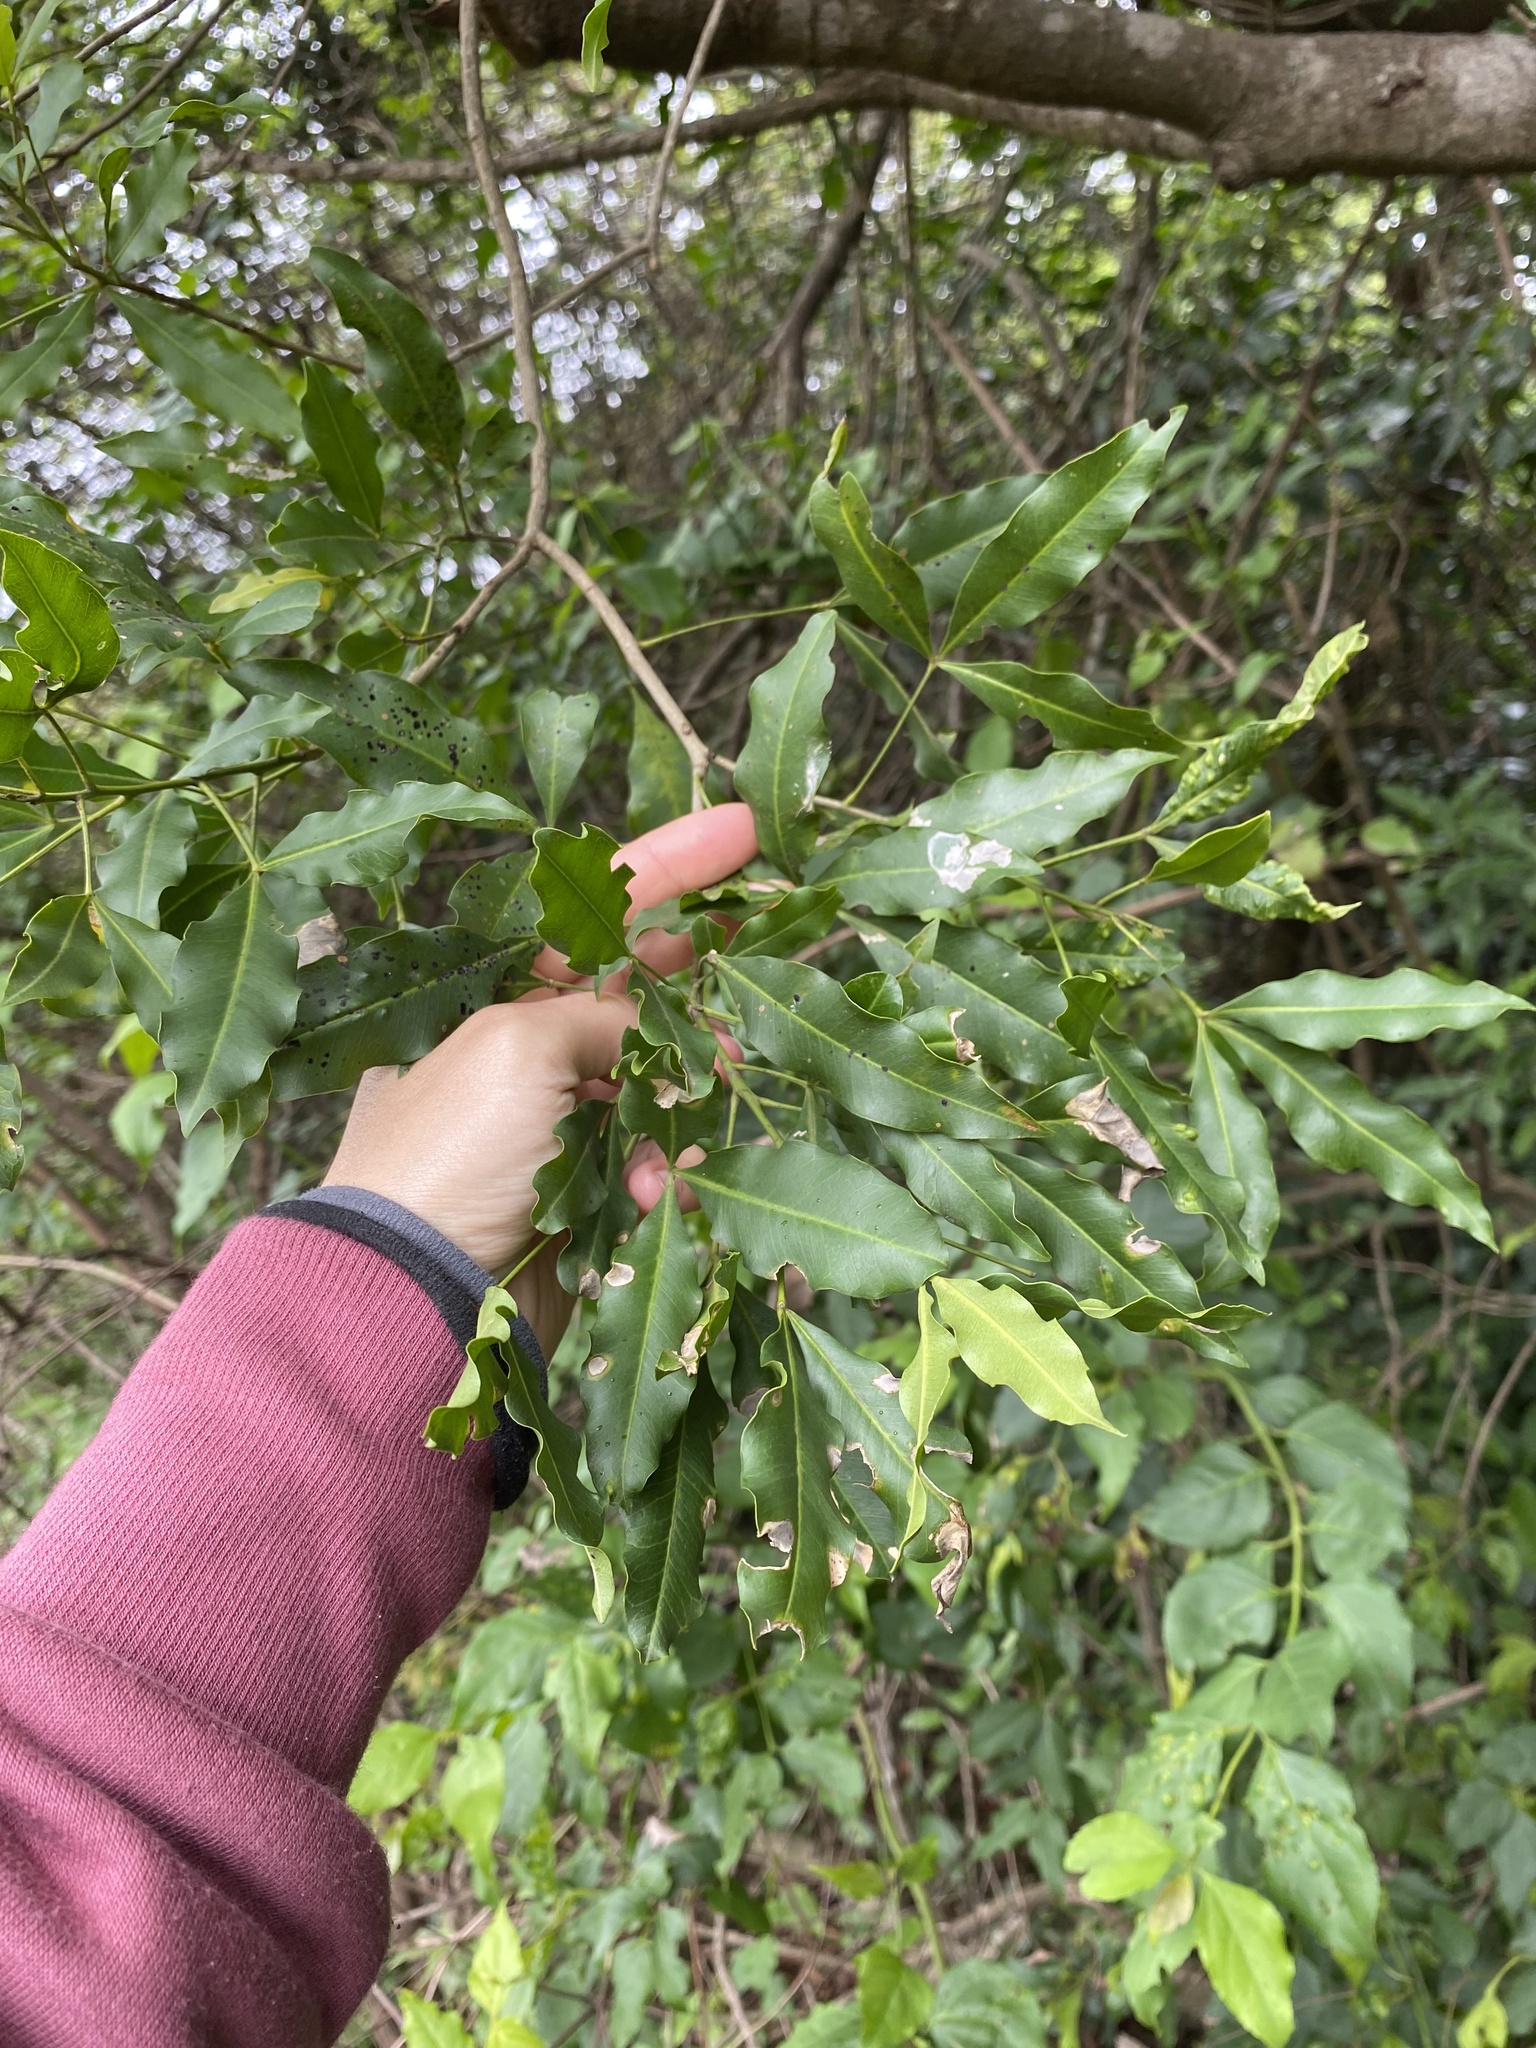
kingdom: Plantae
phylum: Tracheophyta
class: Magnoliopsida
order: Sapindales
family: Rutaceae
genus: Vepris
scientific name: Vepris lanceolata
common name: White ironwood
